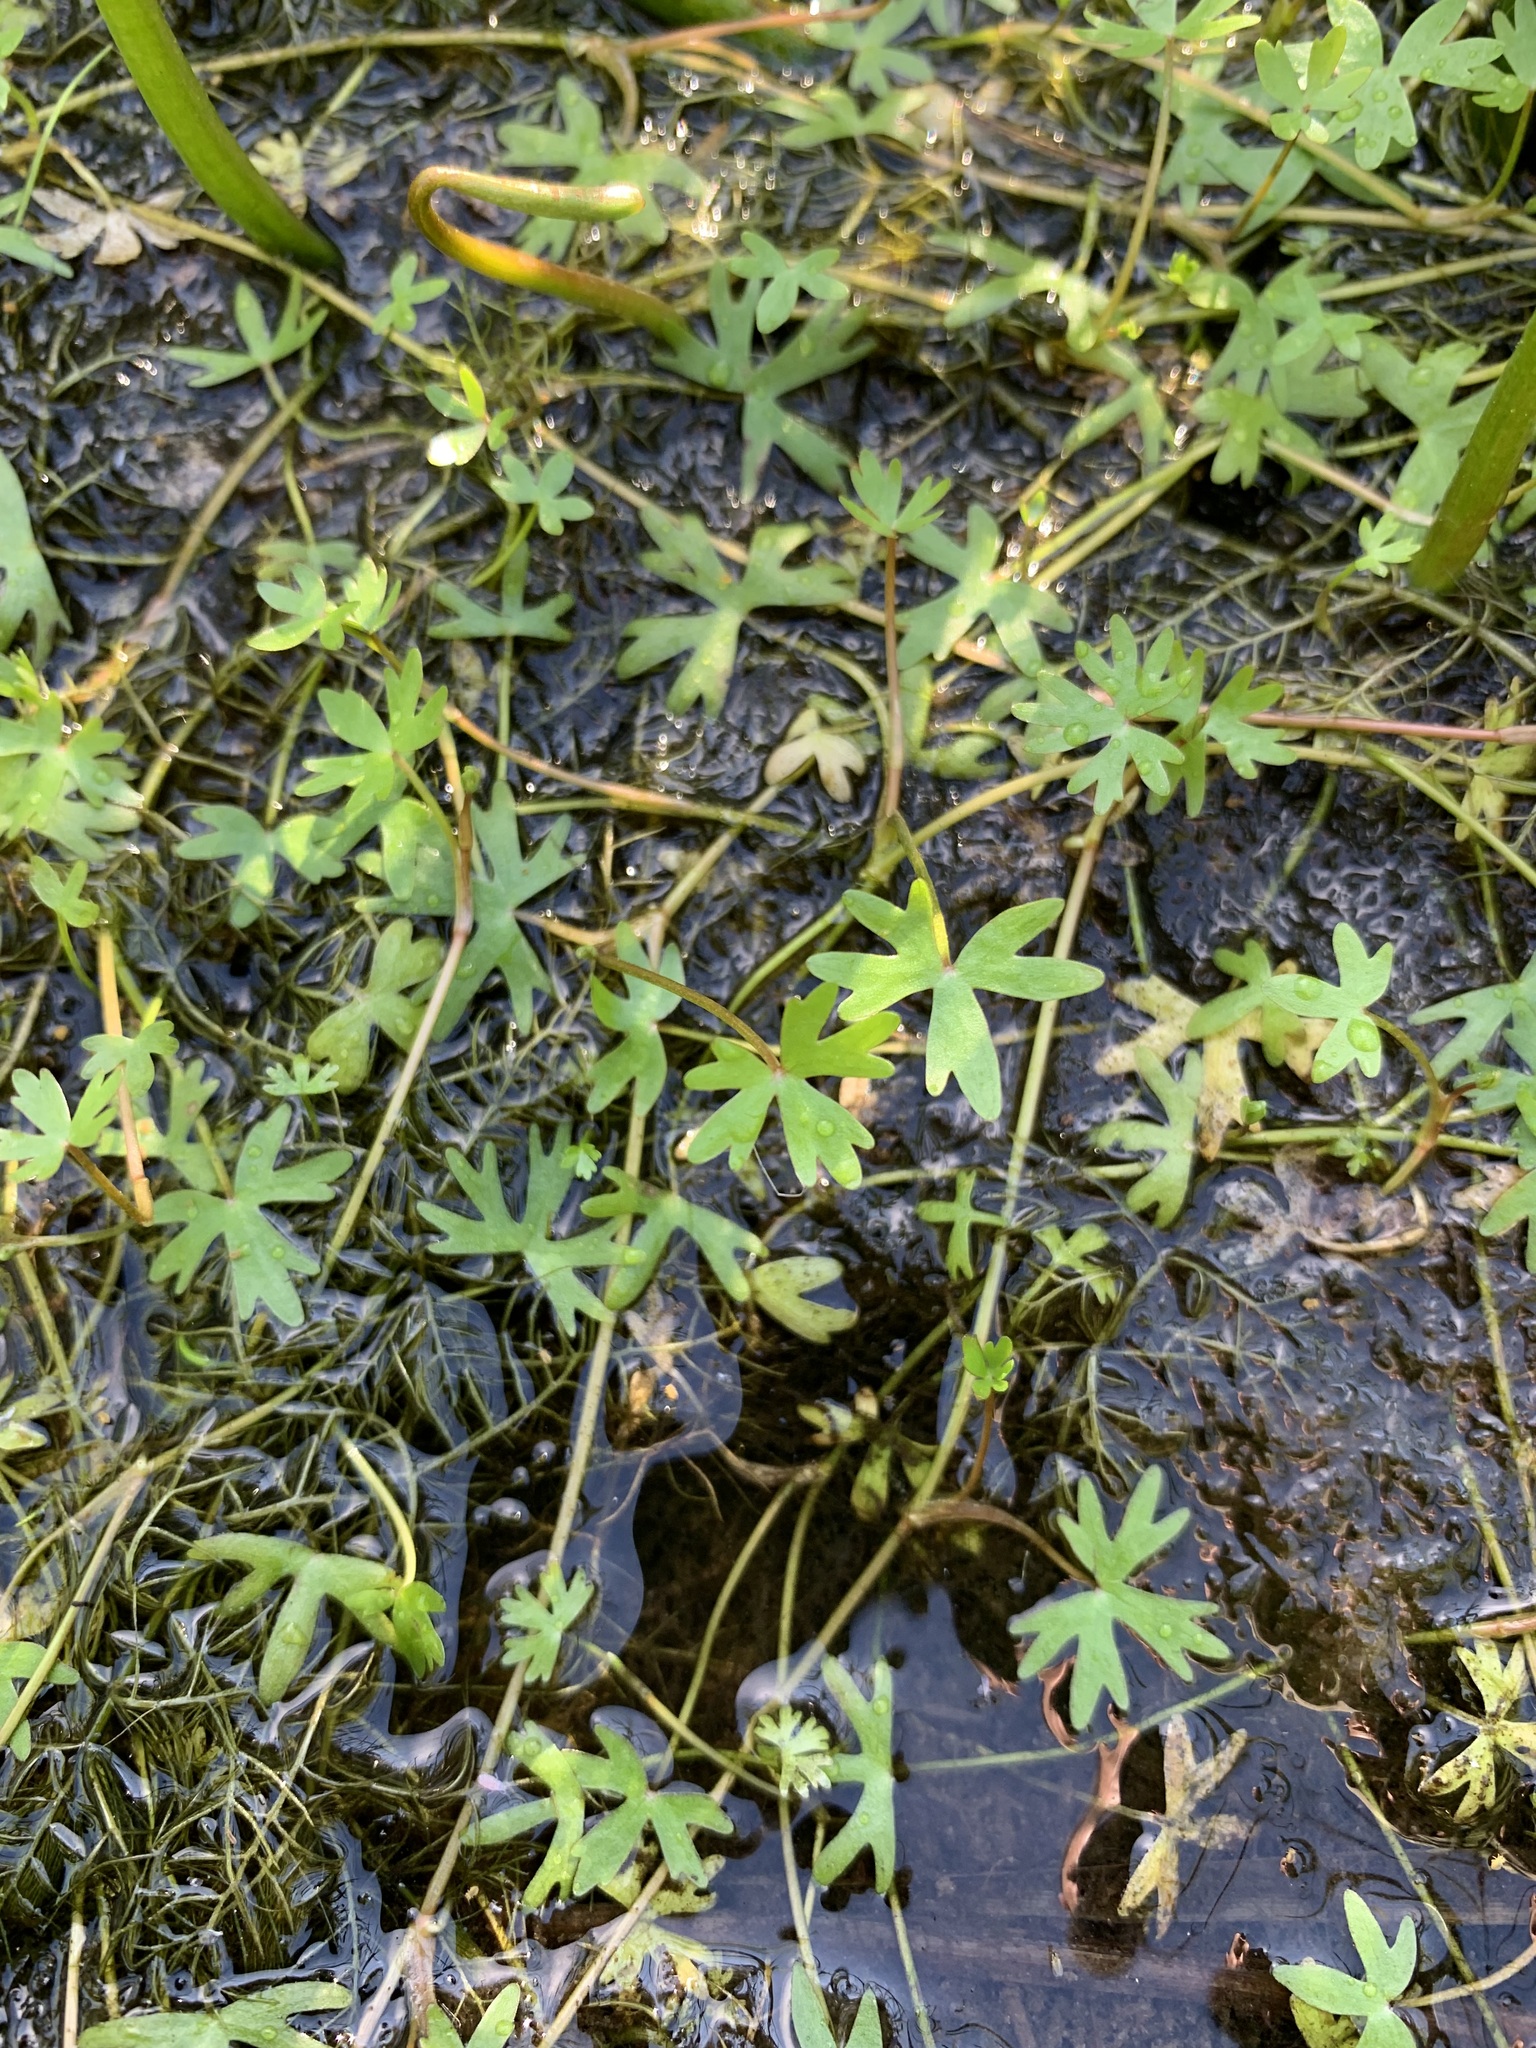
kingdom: Plantae
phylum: Tracheophyta
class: Magnoliopsida
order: Ranunculales
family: Ranunculaceae
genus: Ranunculus
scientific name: Ranunculus gmelinii
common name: Gmelin's buttercup
